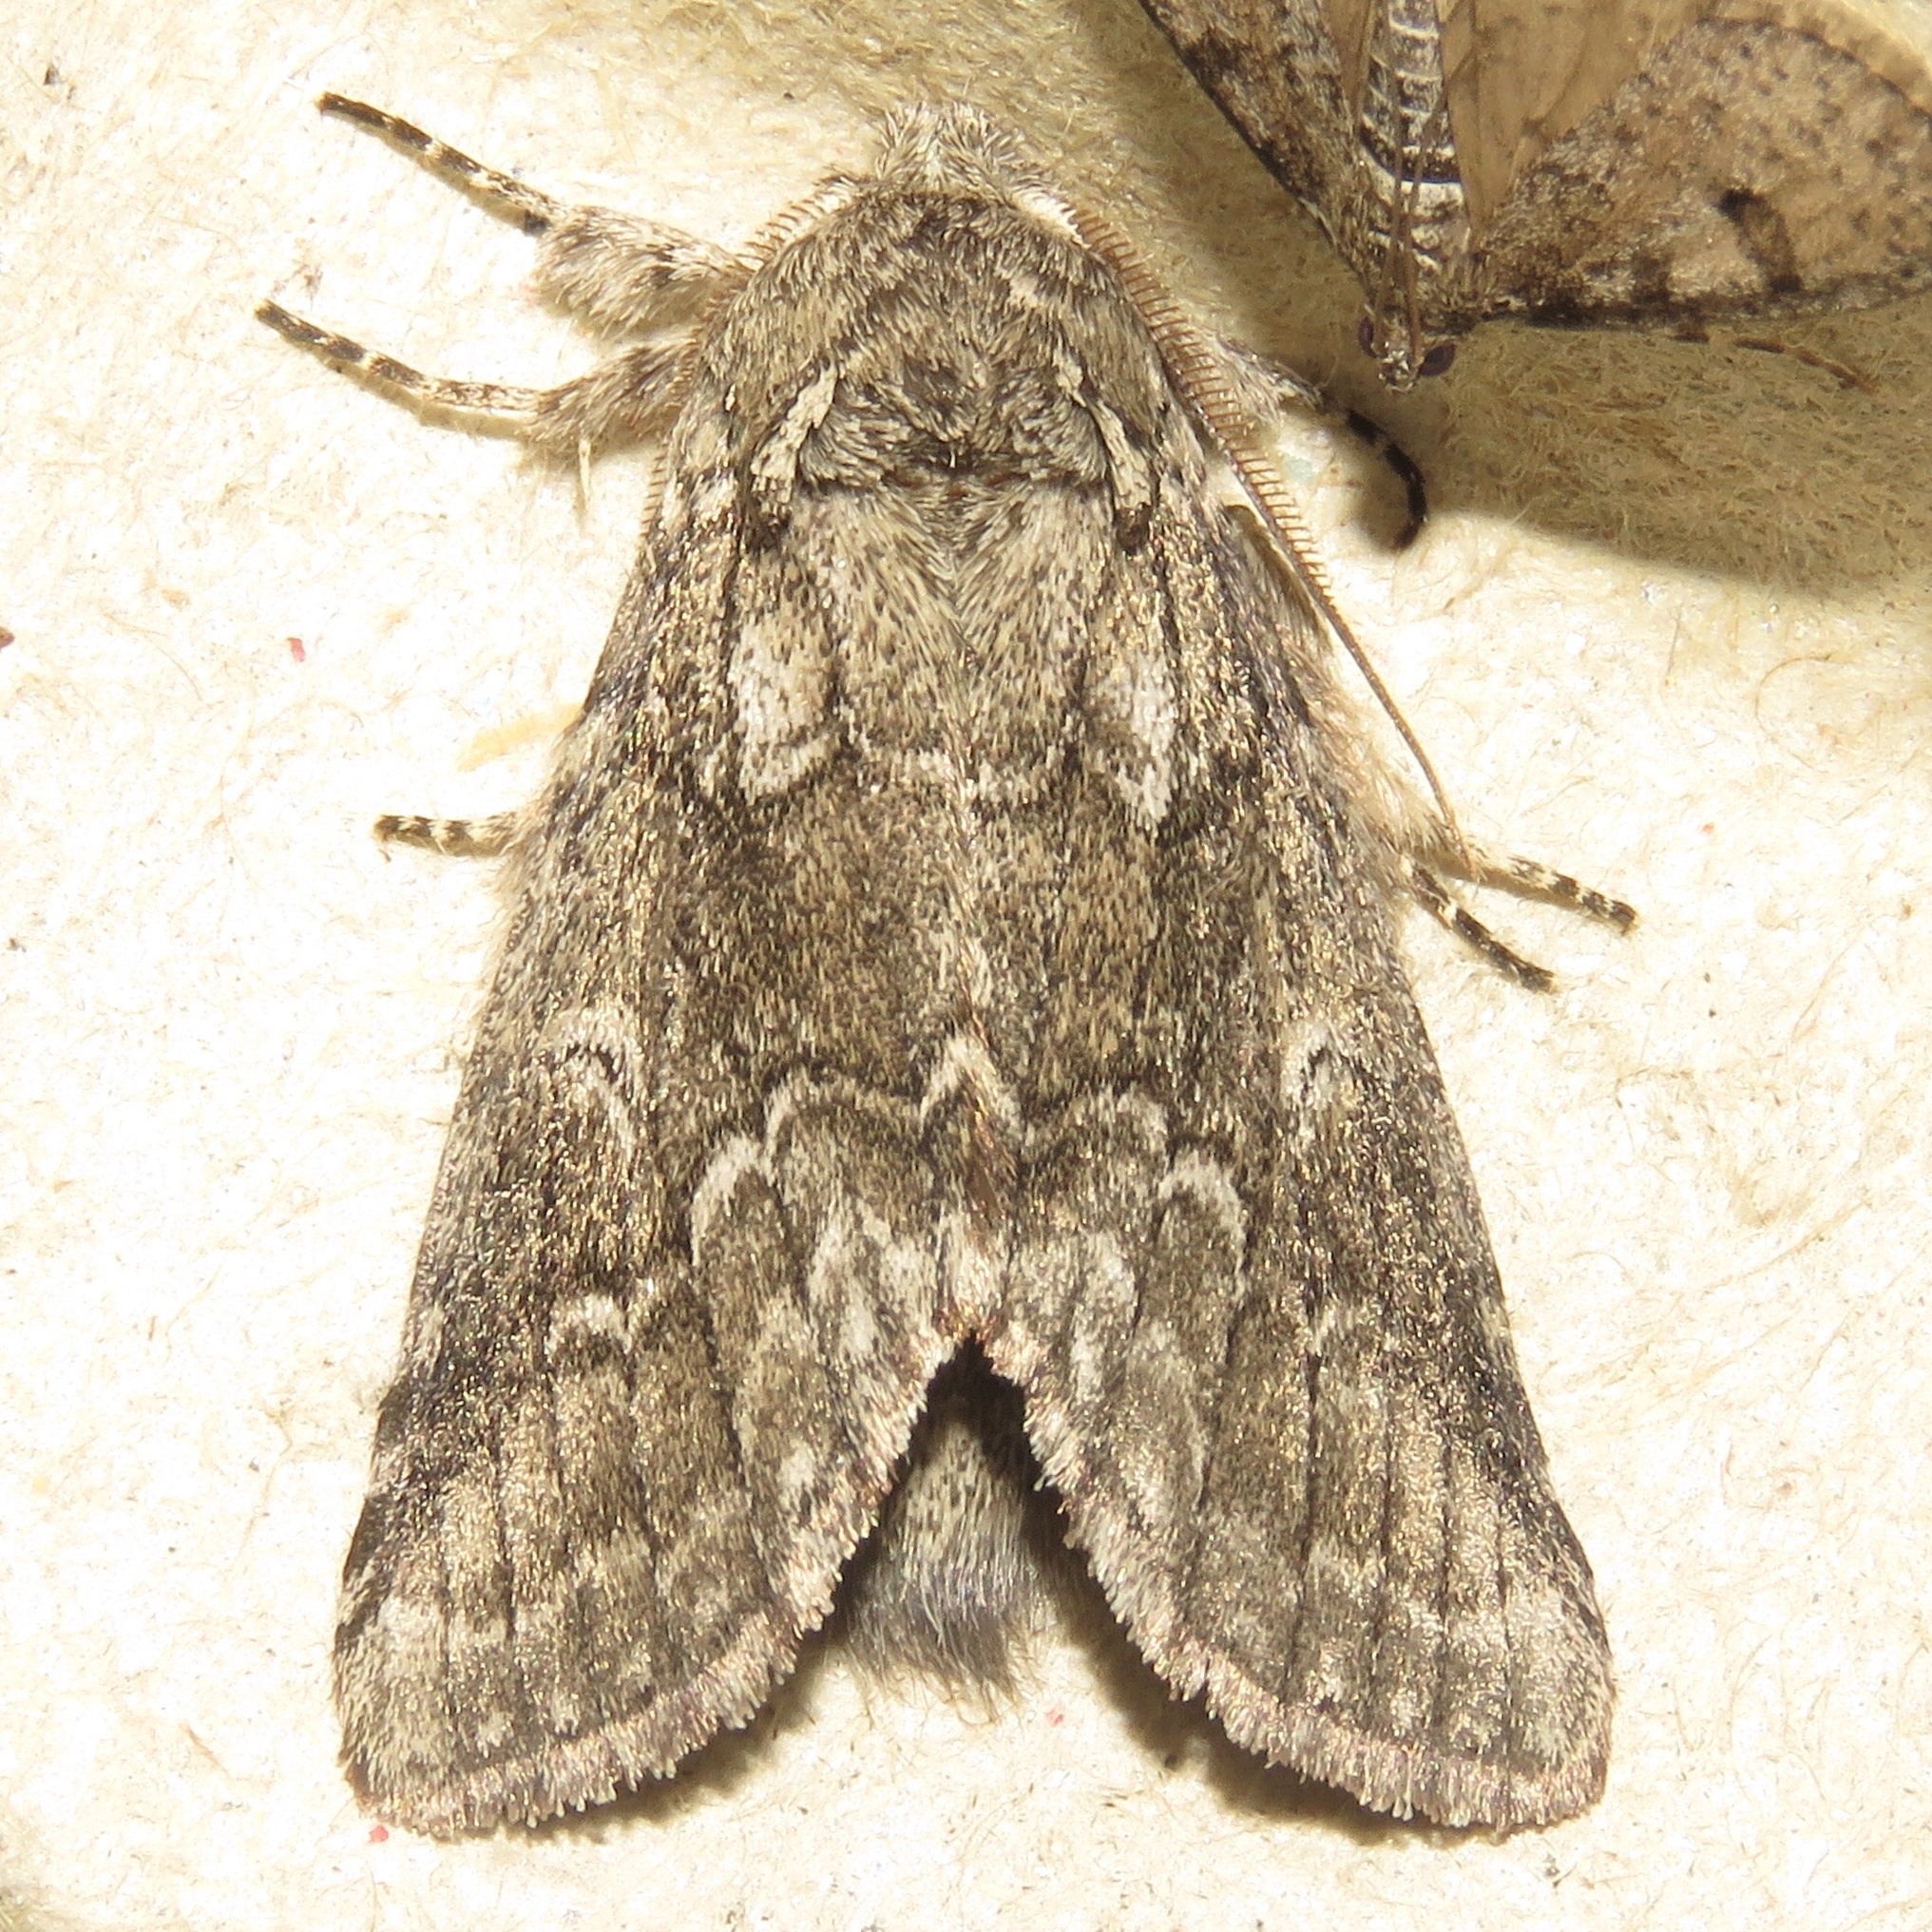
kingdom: Animalia
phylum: Arthropoda
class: Insecta
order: Lepidoptera
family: Notodontidae
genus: Lochmaeus
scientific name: Lochmaeus bilineata
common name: Double-lined prominent
